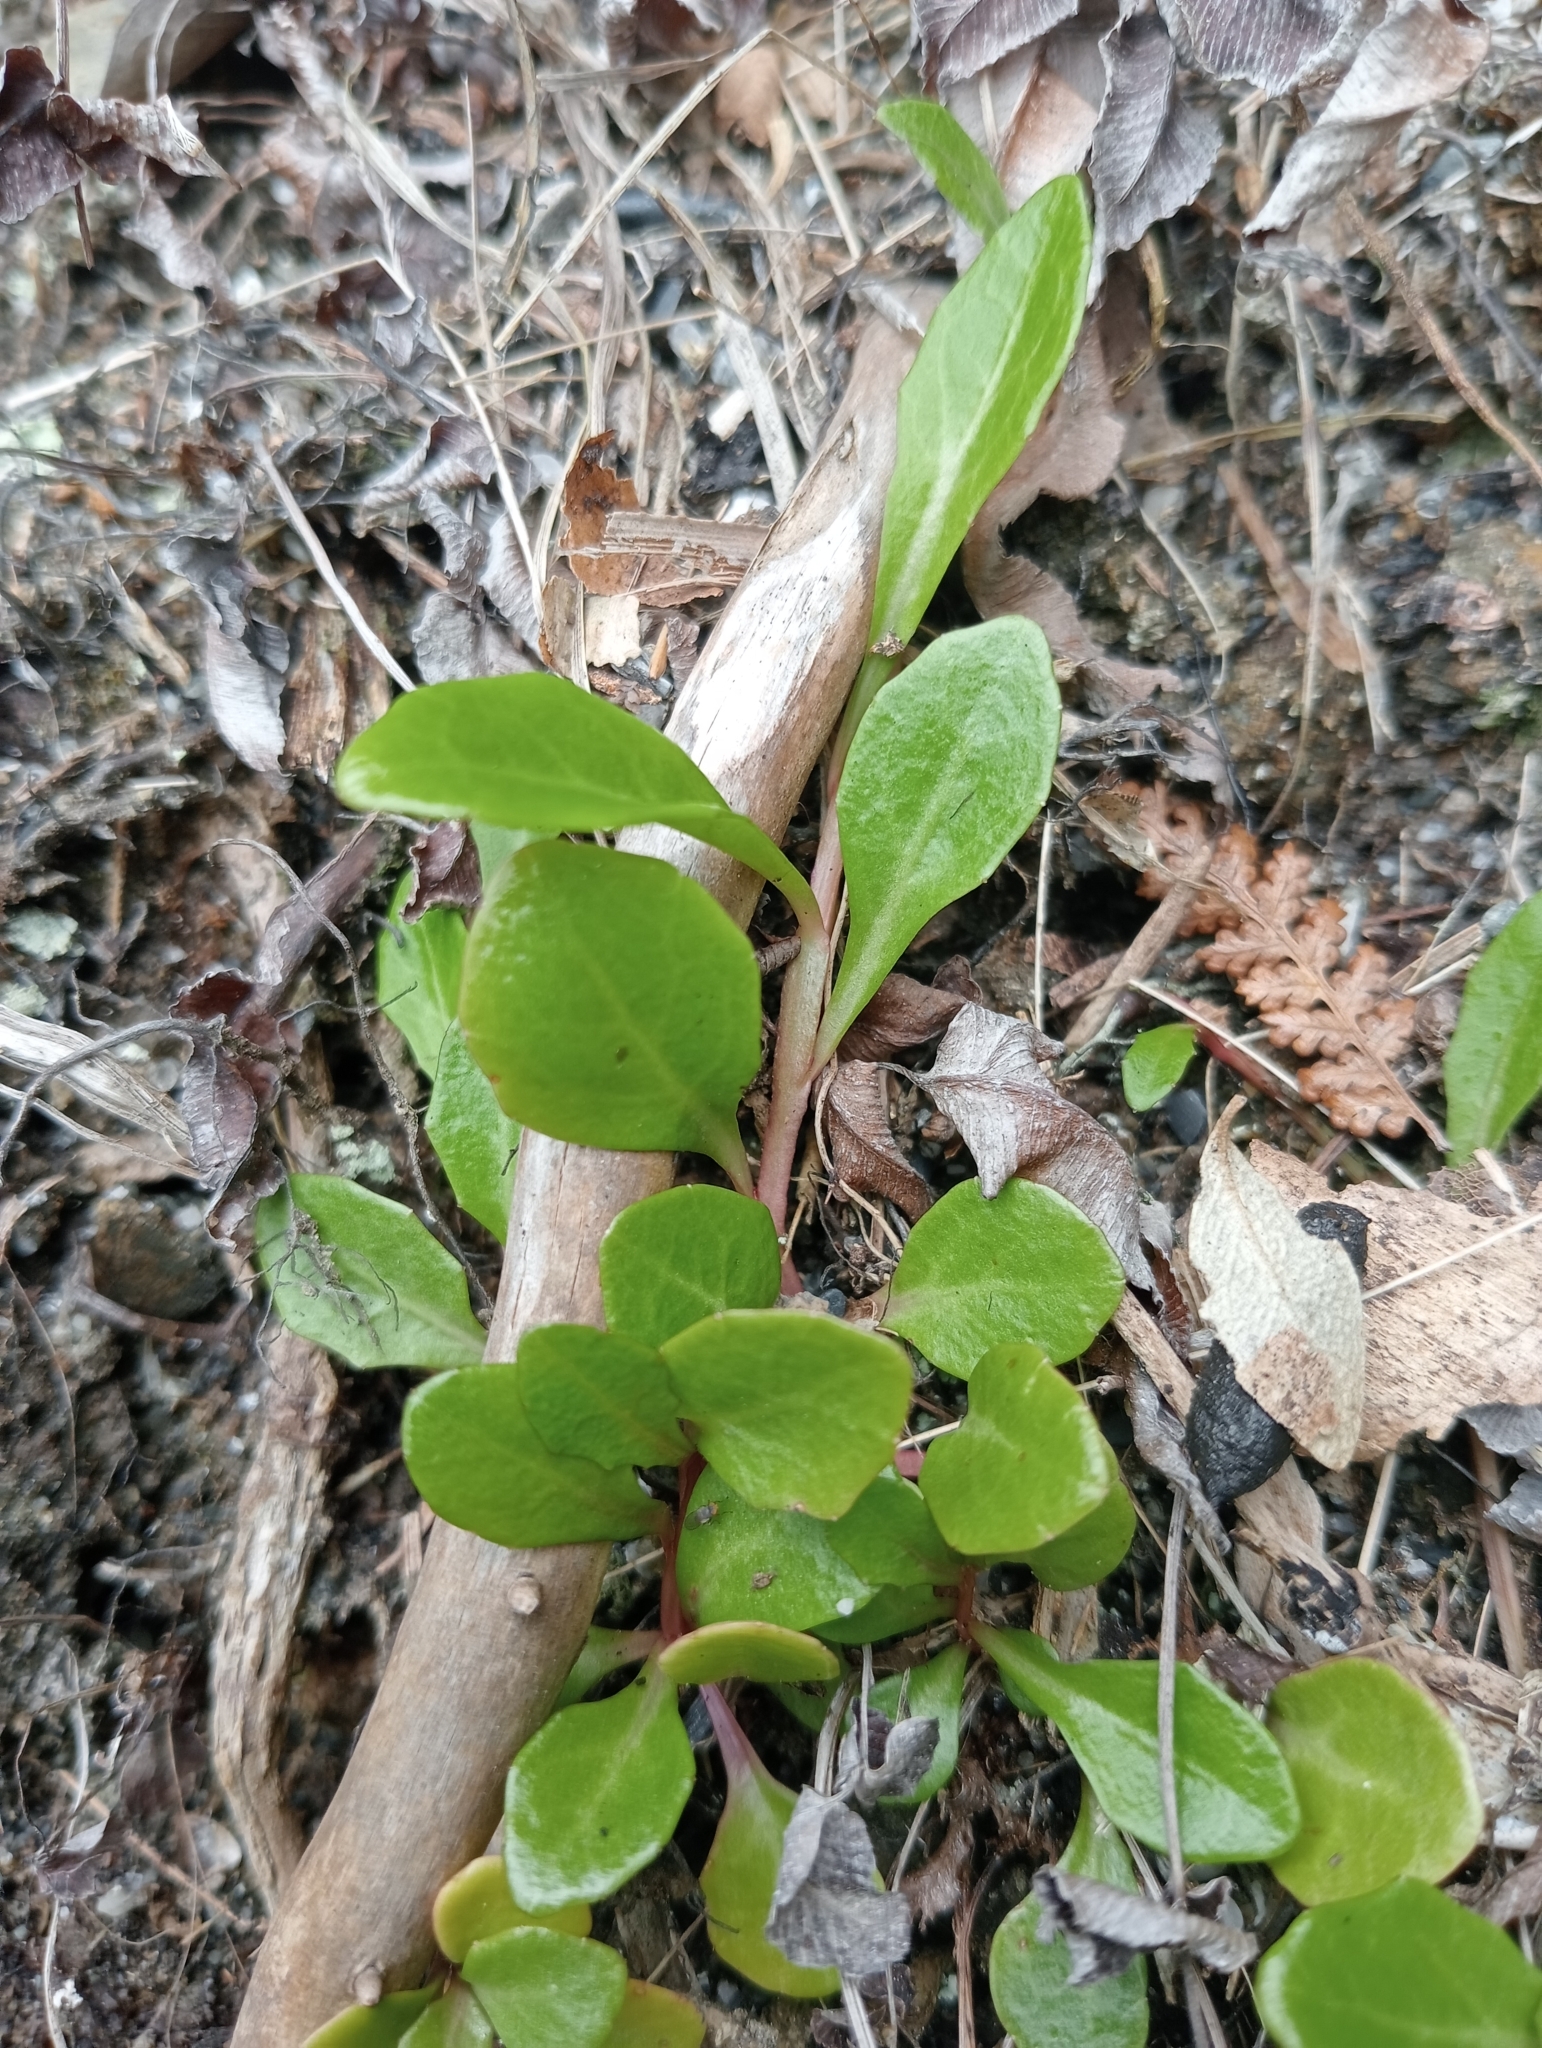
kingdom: Plantae
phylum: Tracheophyta
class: Magnoliopsida
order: Asterales
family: Campanulaceae
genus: Lobelia
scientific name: Lobelia anceps
